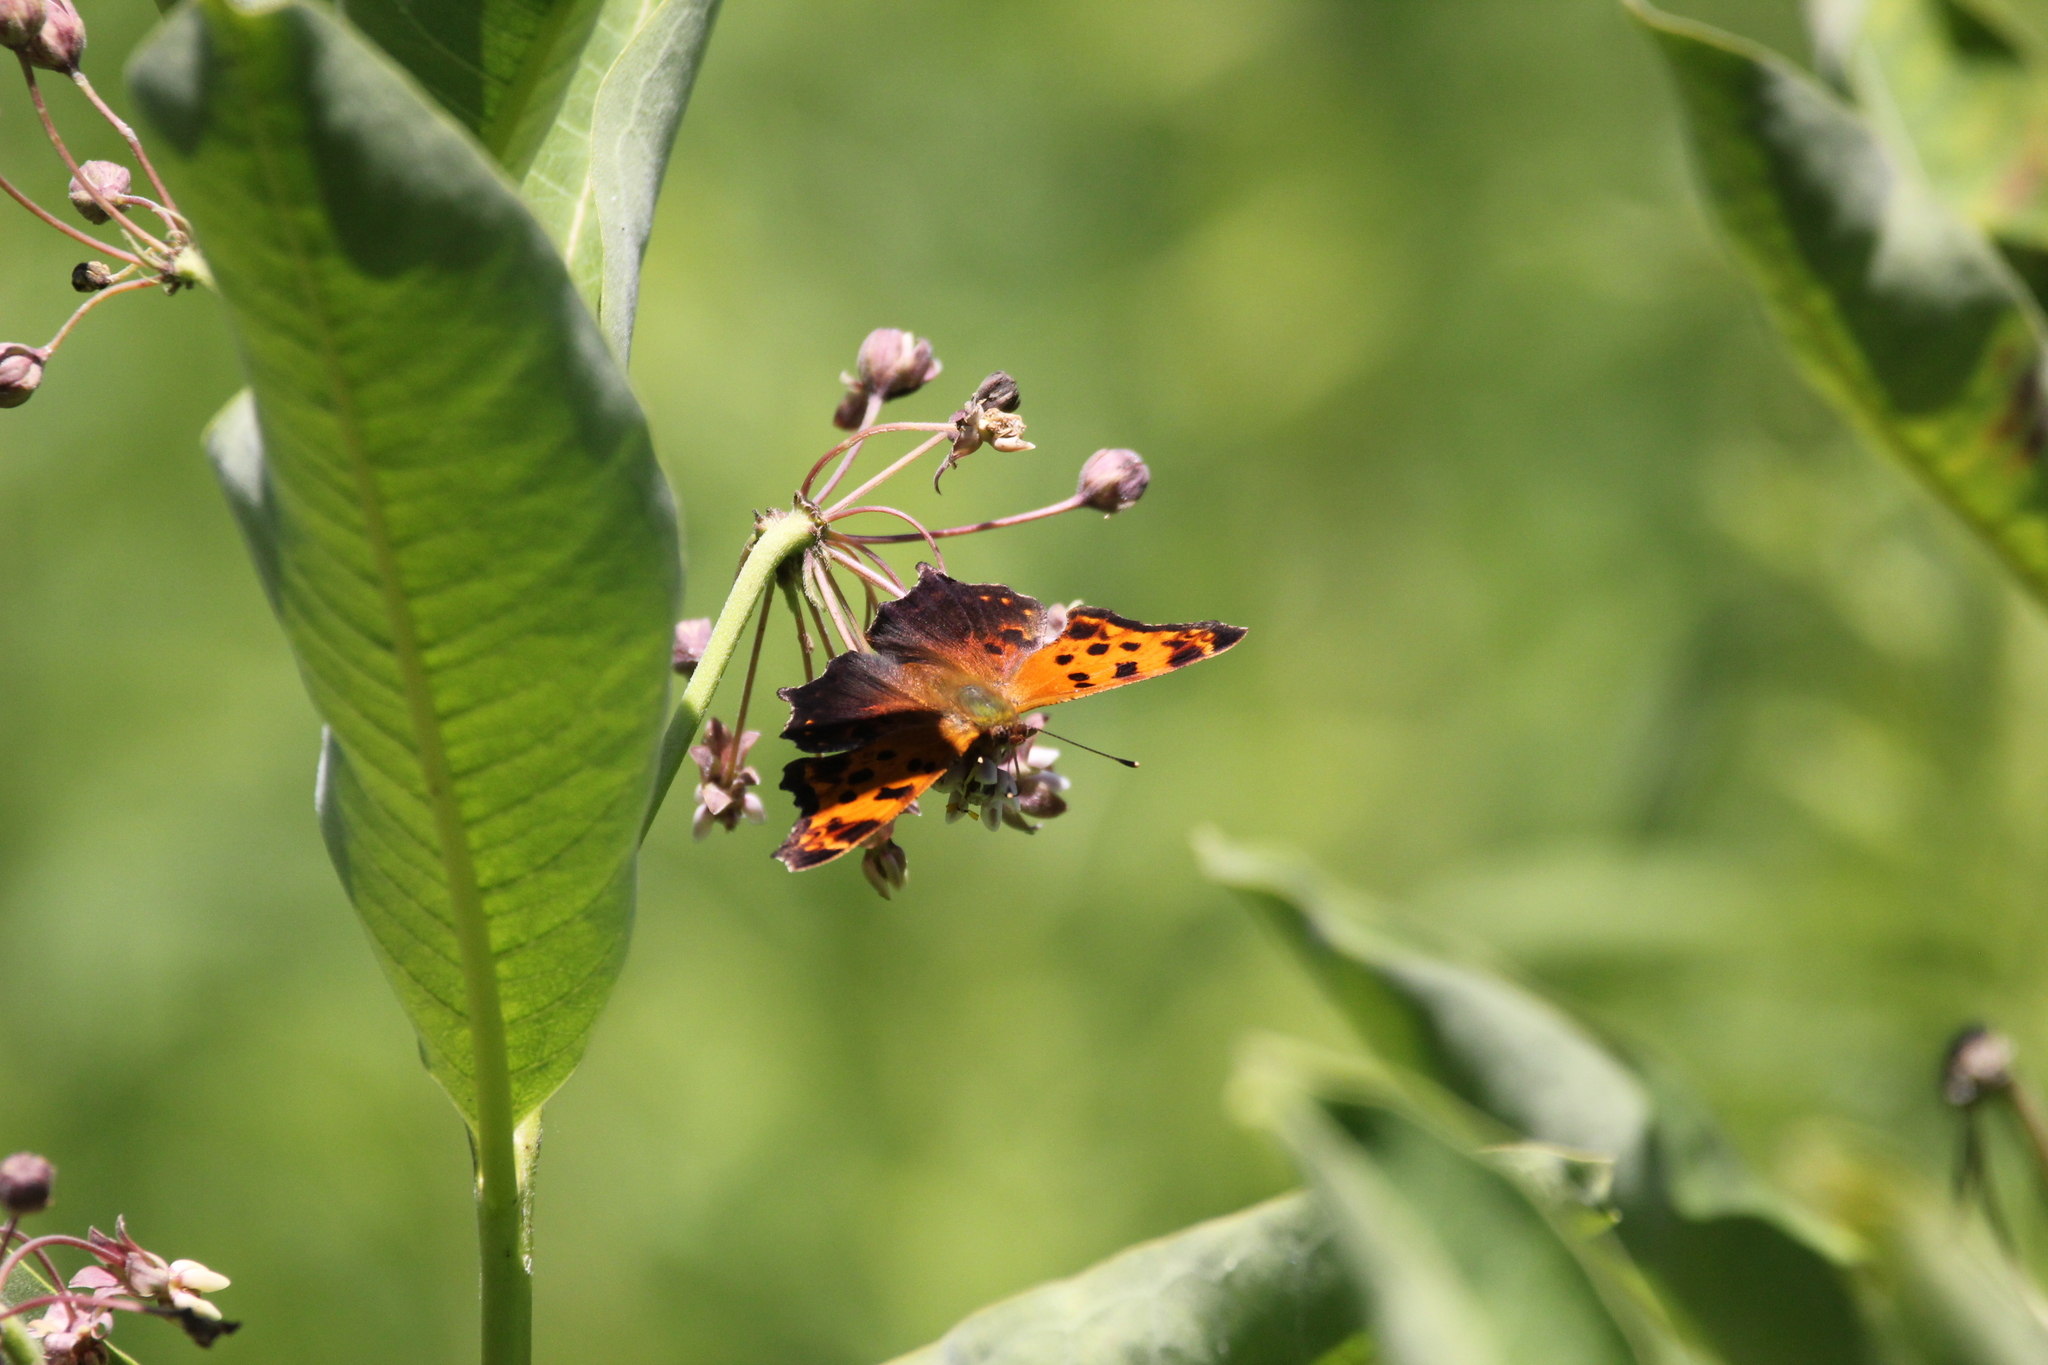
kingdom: Animalia
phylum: Arthropoda
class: Insecta
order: Lepidoptera
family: Nymphalidae
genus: Polygonia
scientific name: Polygonia comma
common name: Eastern comma
